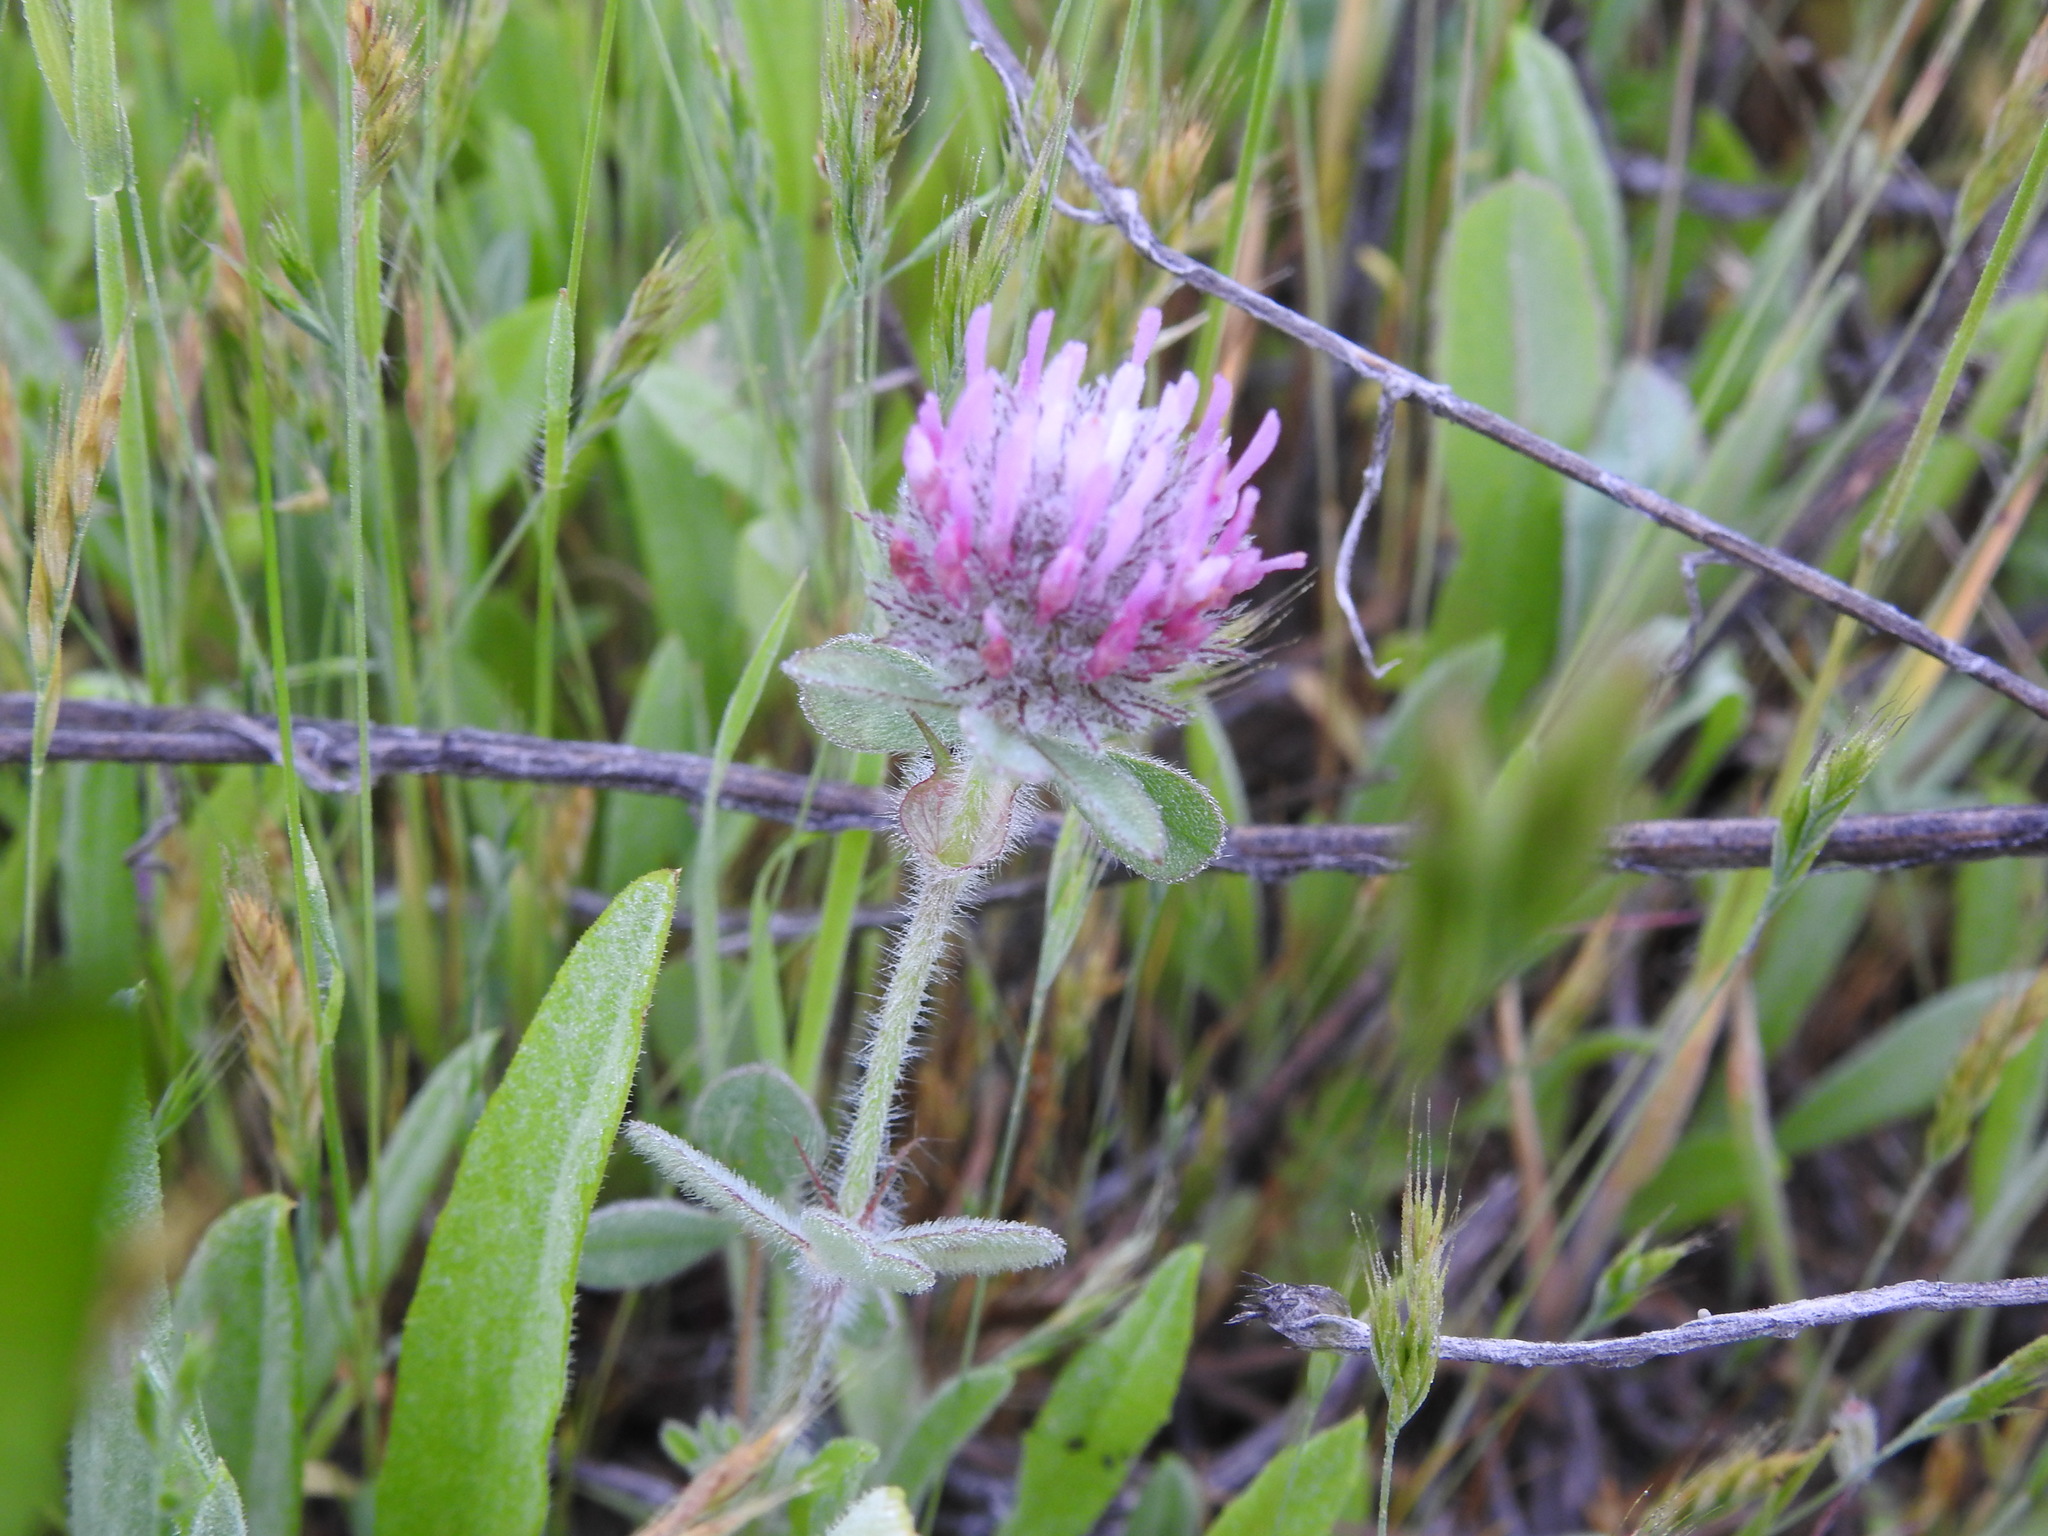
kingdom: Plantae
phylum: Tracheophyta
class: Magnoliopsida
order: Fabales
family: Fabaceae
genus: Trifolium
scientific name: Trifolium hirtum
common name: Rose clover
